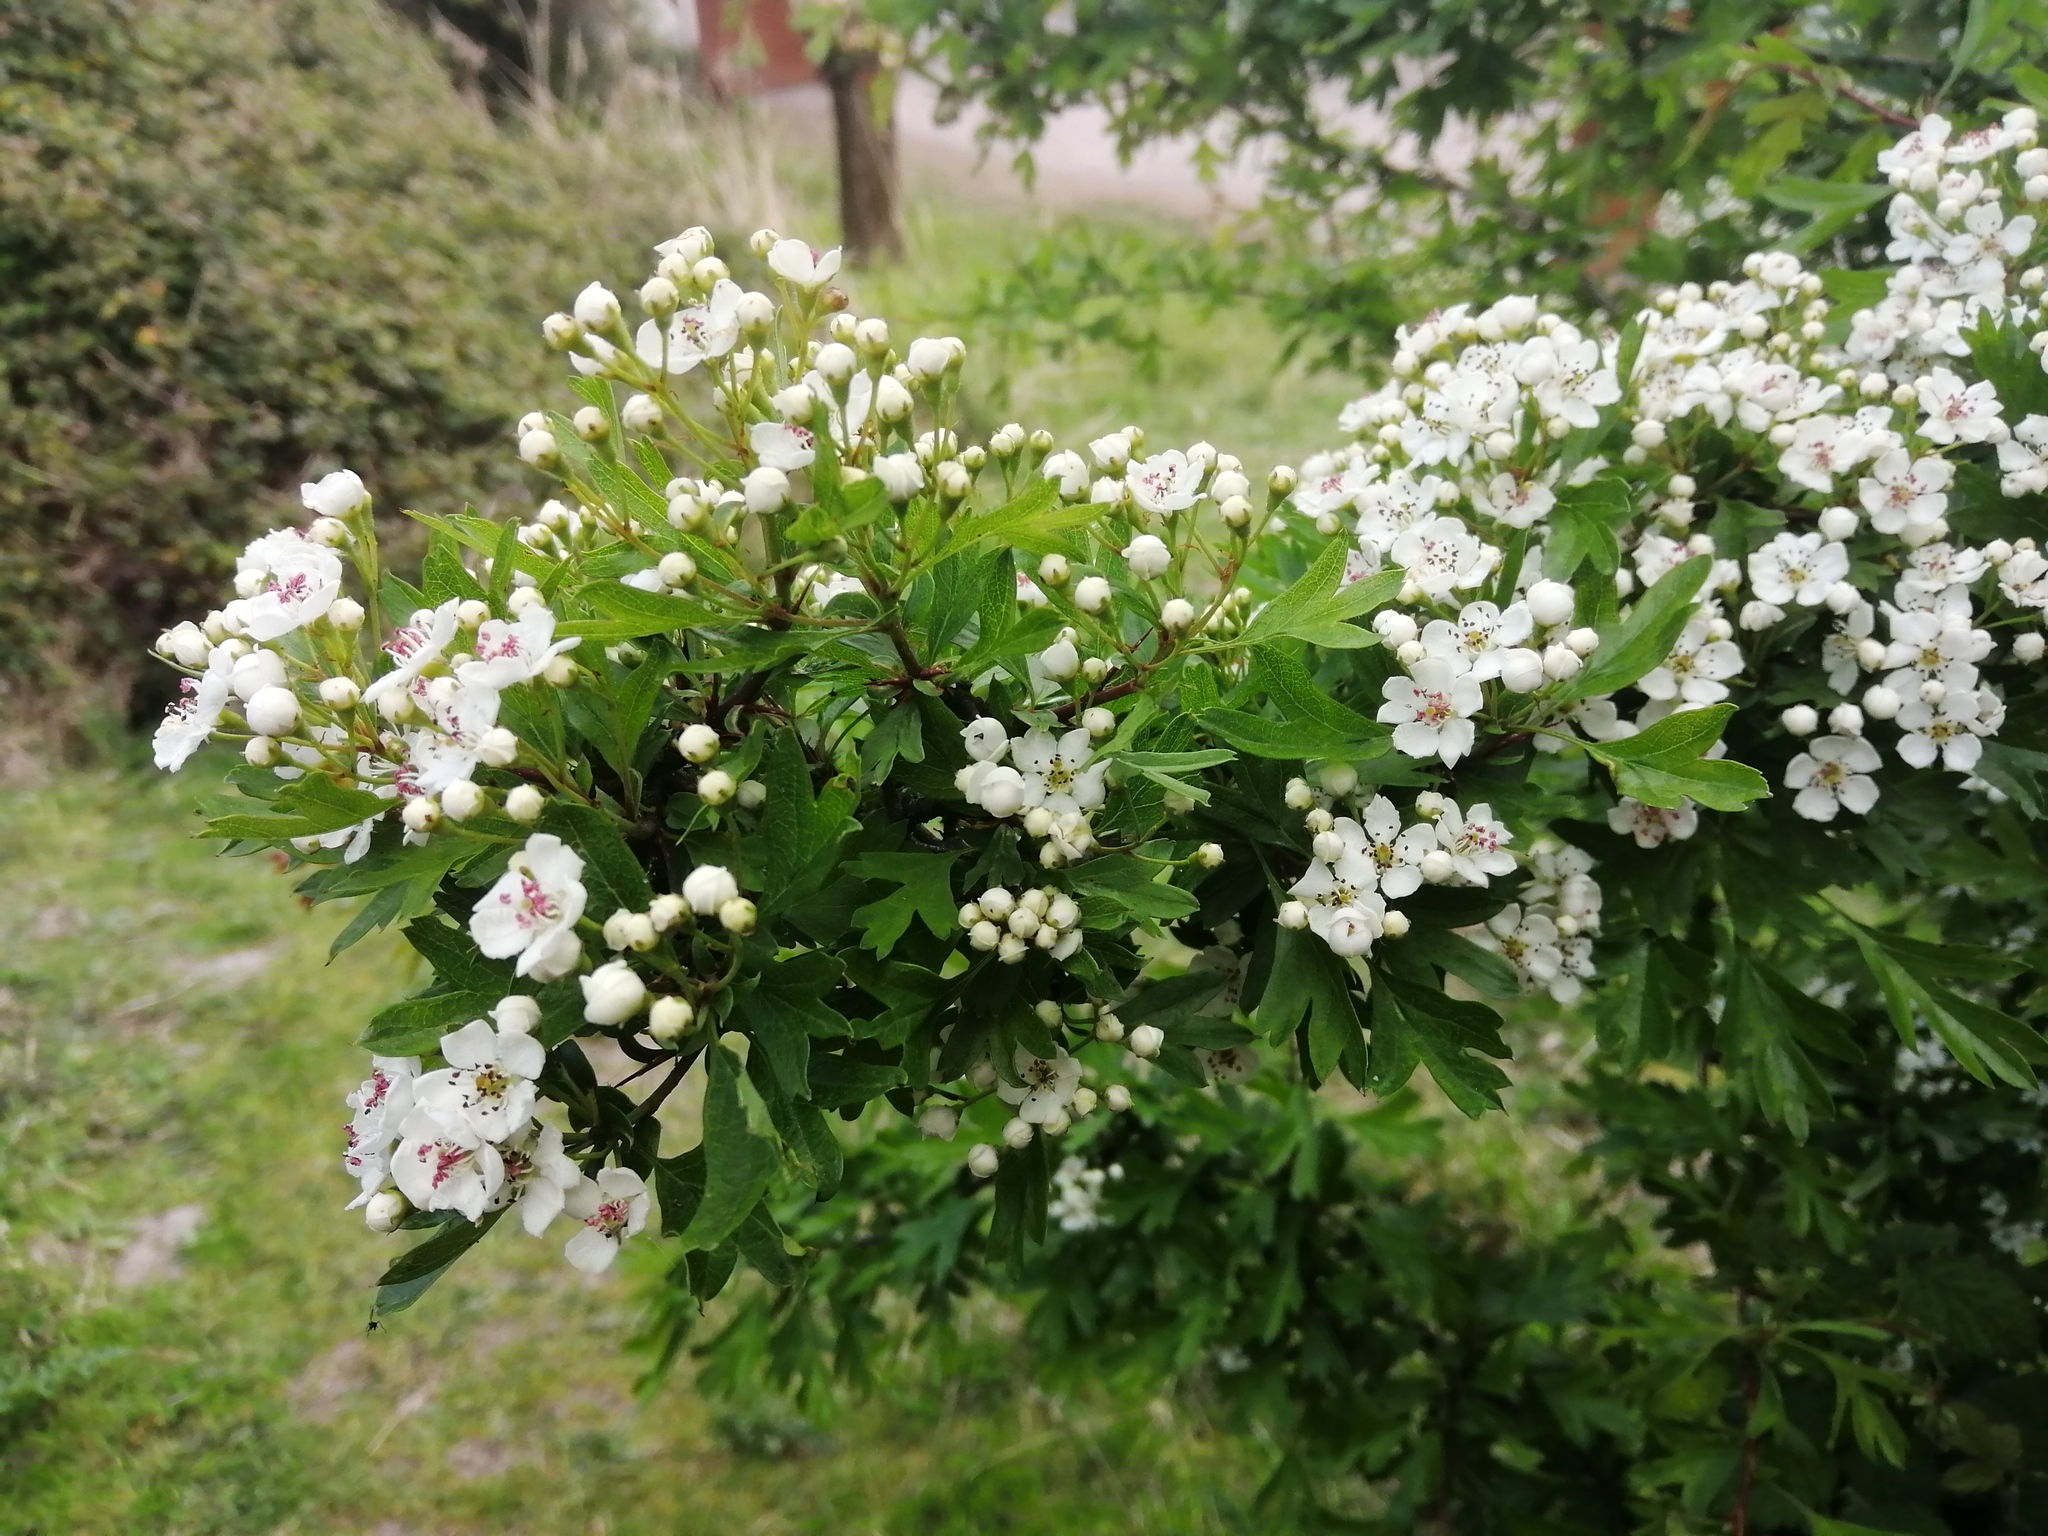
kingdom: Plantae
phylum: Tracheophyta
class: Magnoliopsida
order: Rosales
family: Rosaceae
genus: Crataegus
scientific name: Crataegus monogyna
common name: Hawthorn
